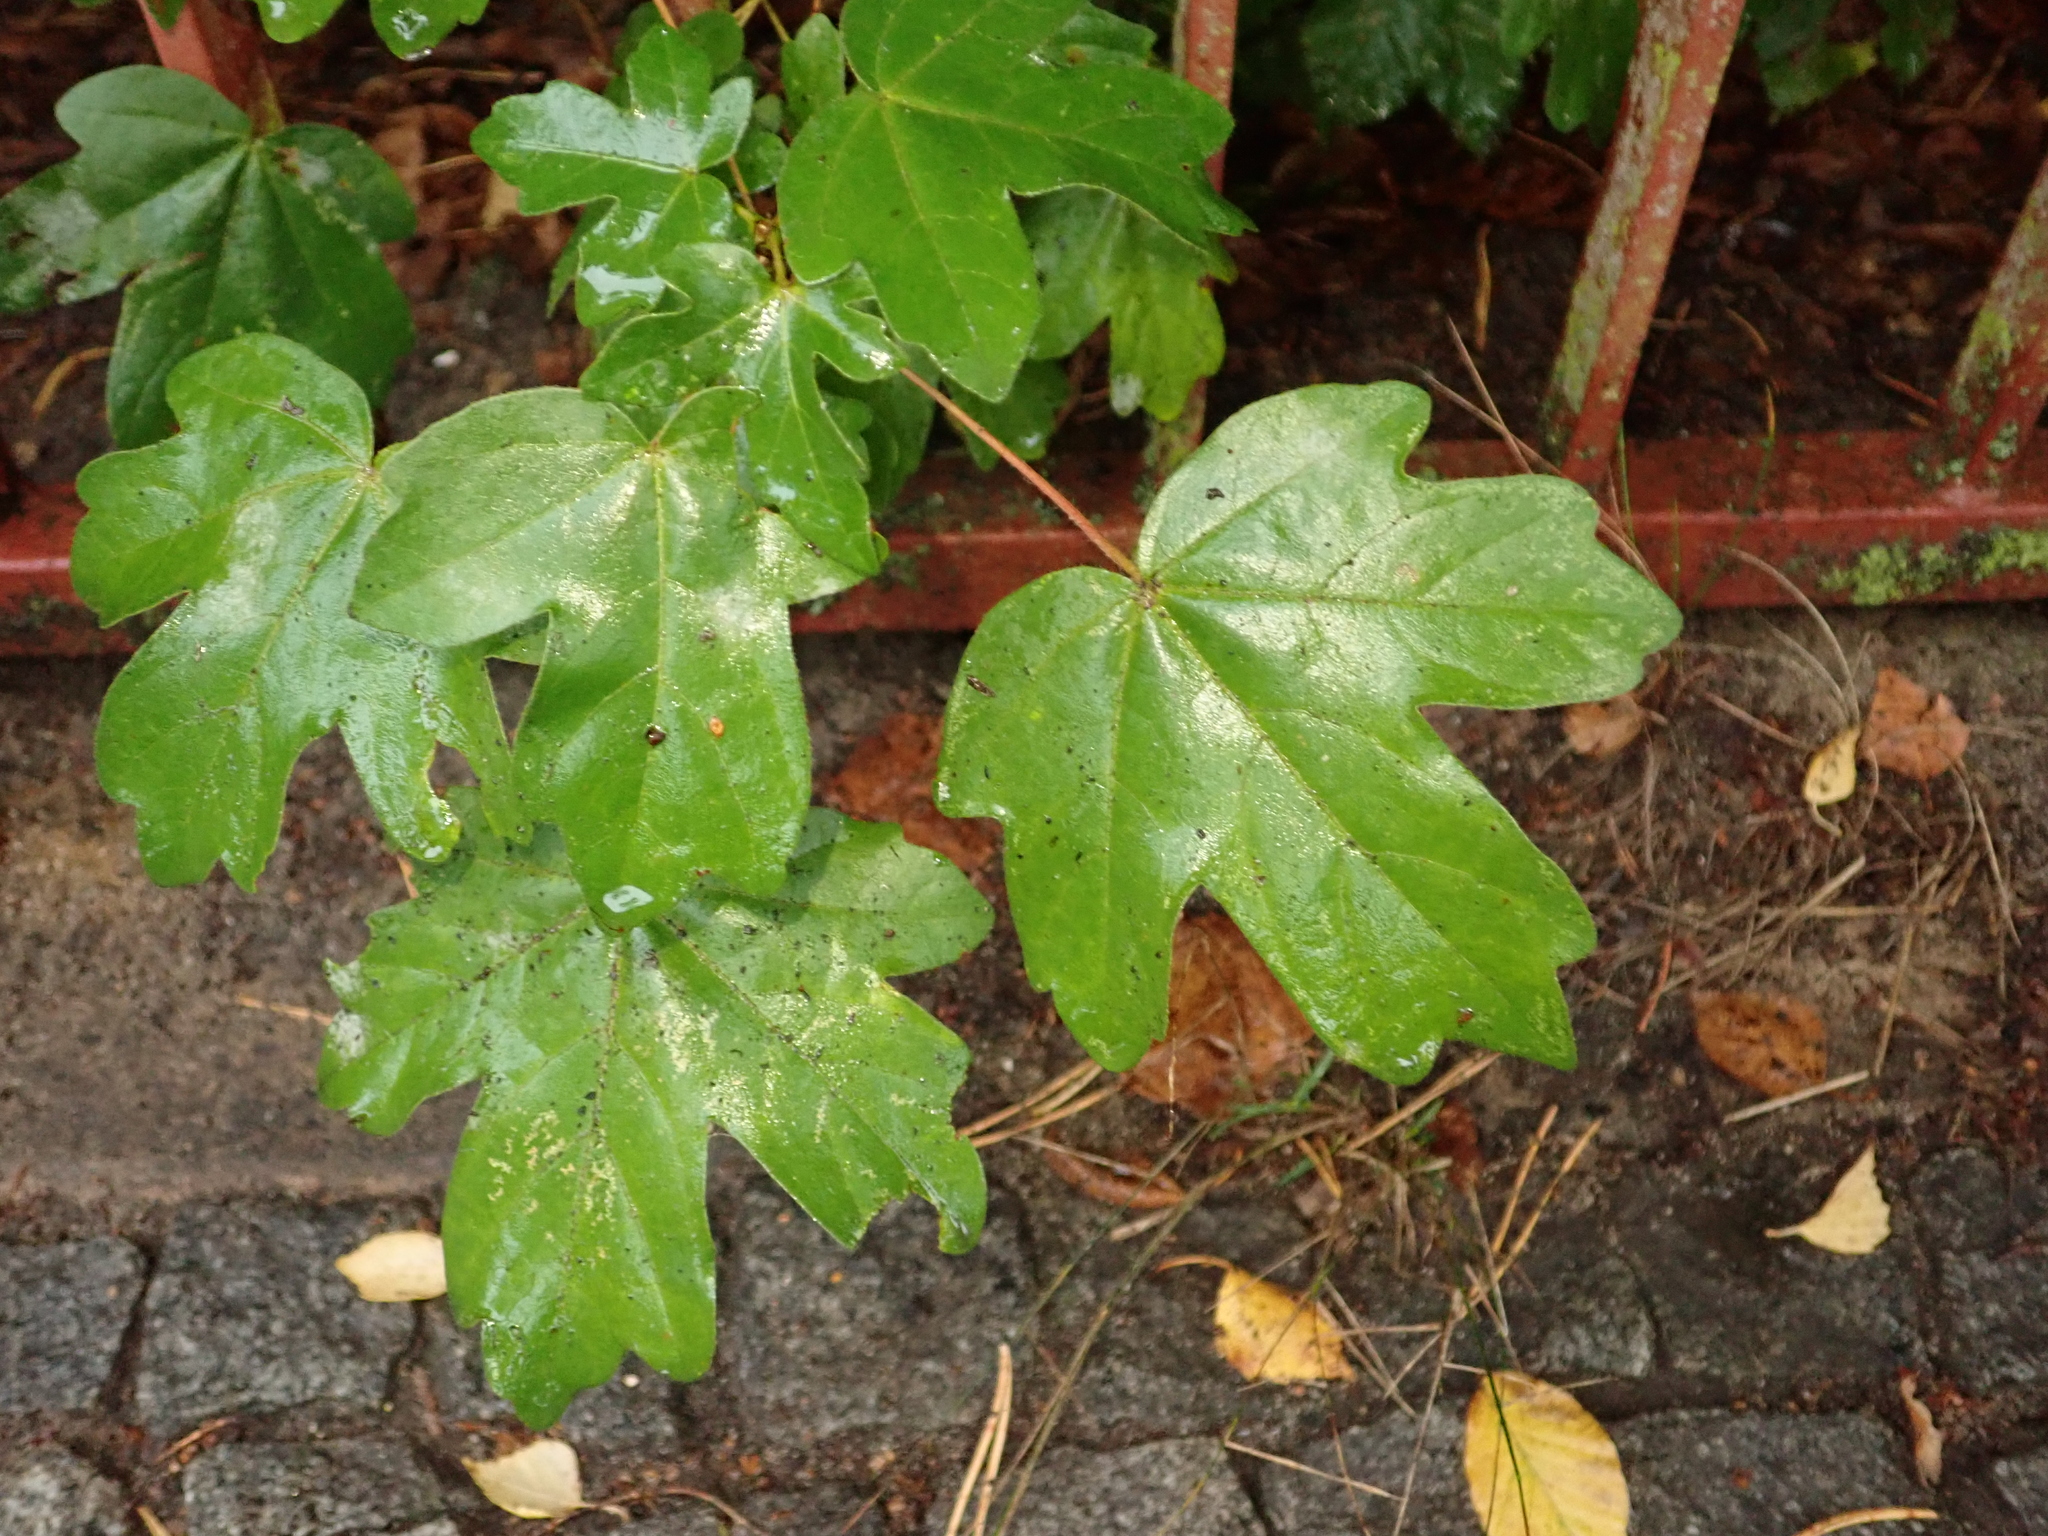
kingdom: Plantae
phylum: Tracheophyta
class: Magnoliopsida
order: Sapindales
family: Sapindaceae
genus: Acer
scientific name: Acer campestre
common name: Field maple
